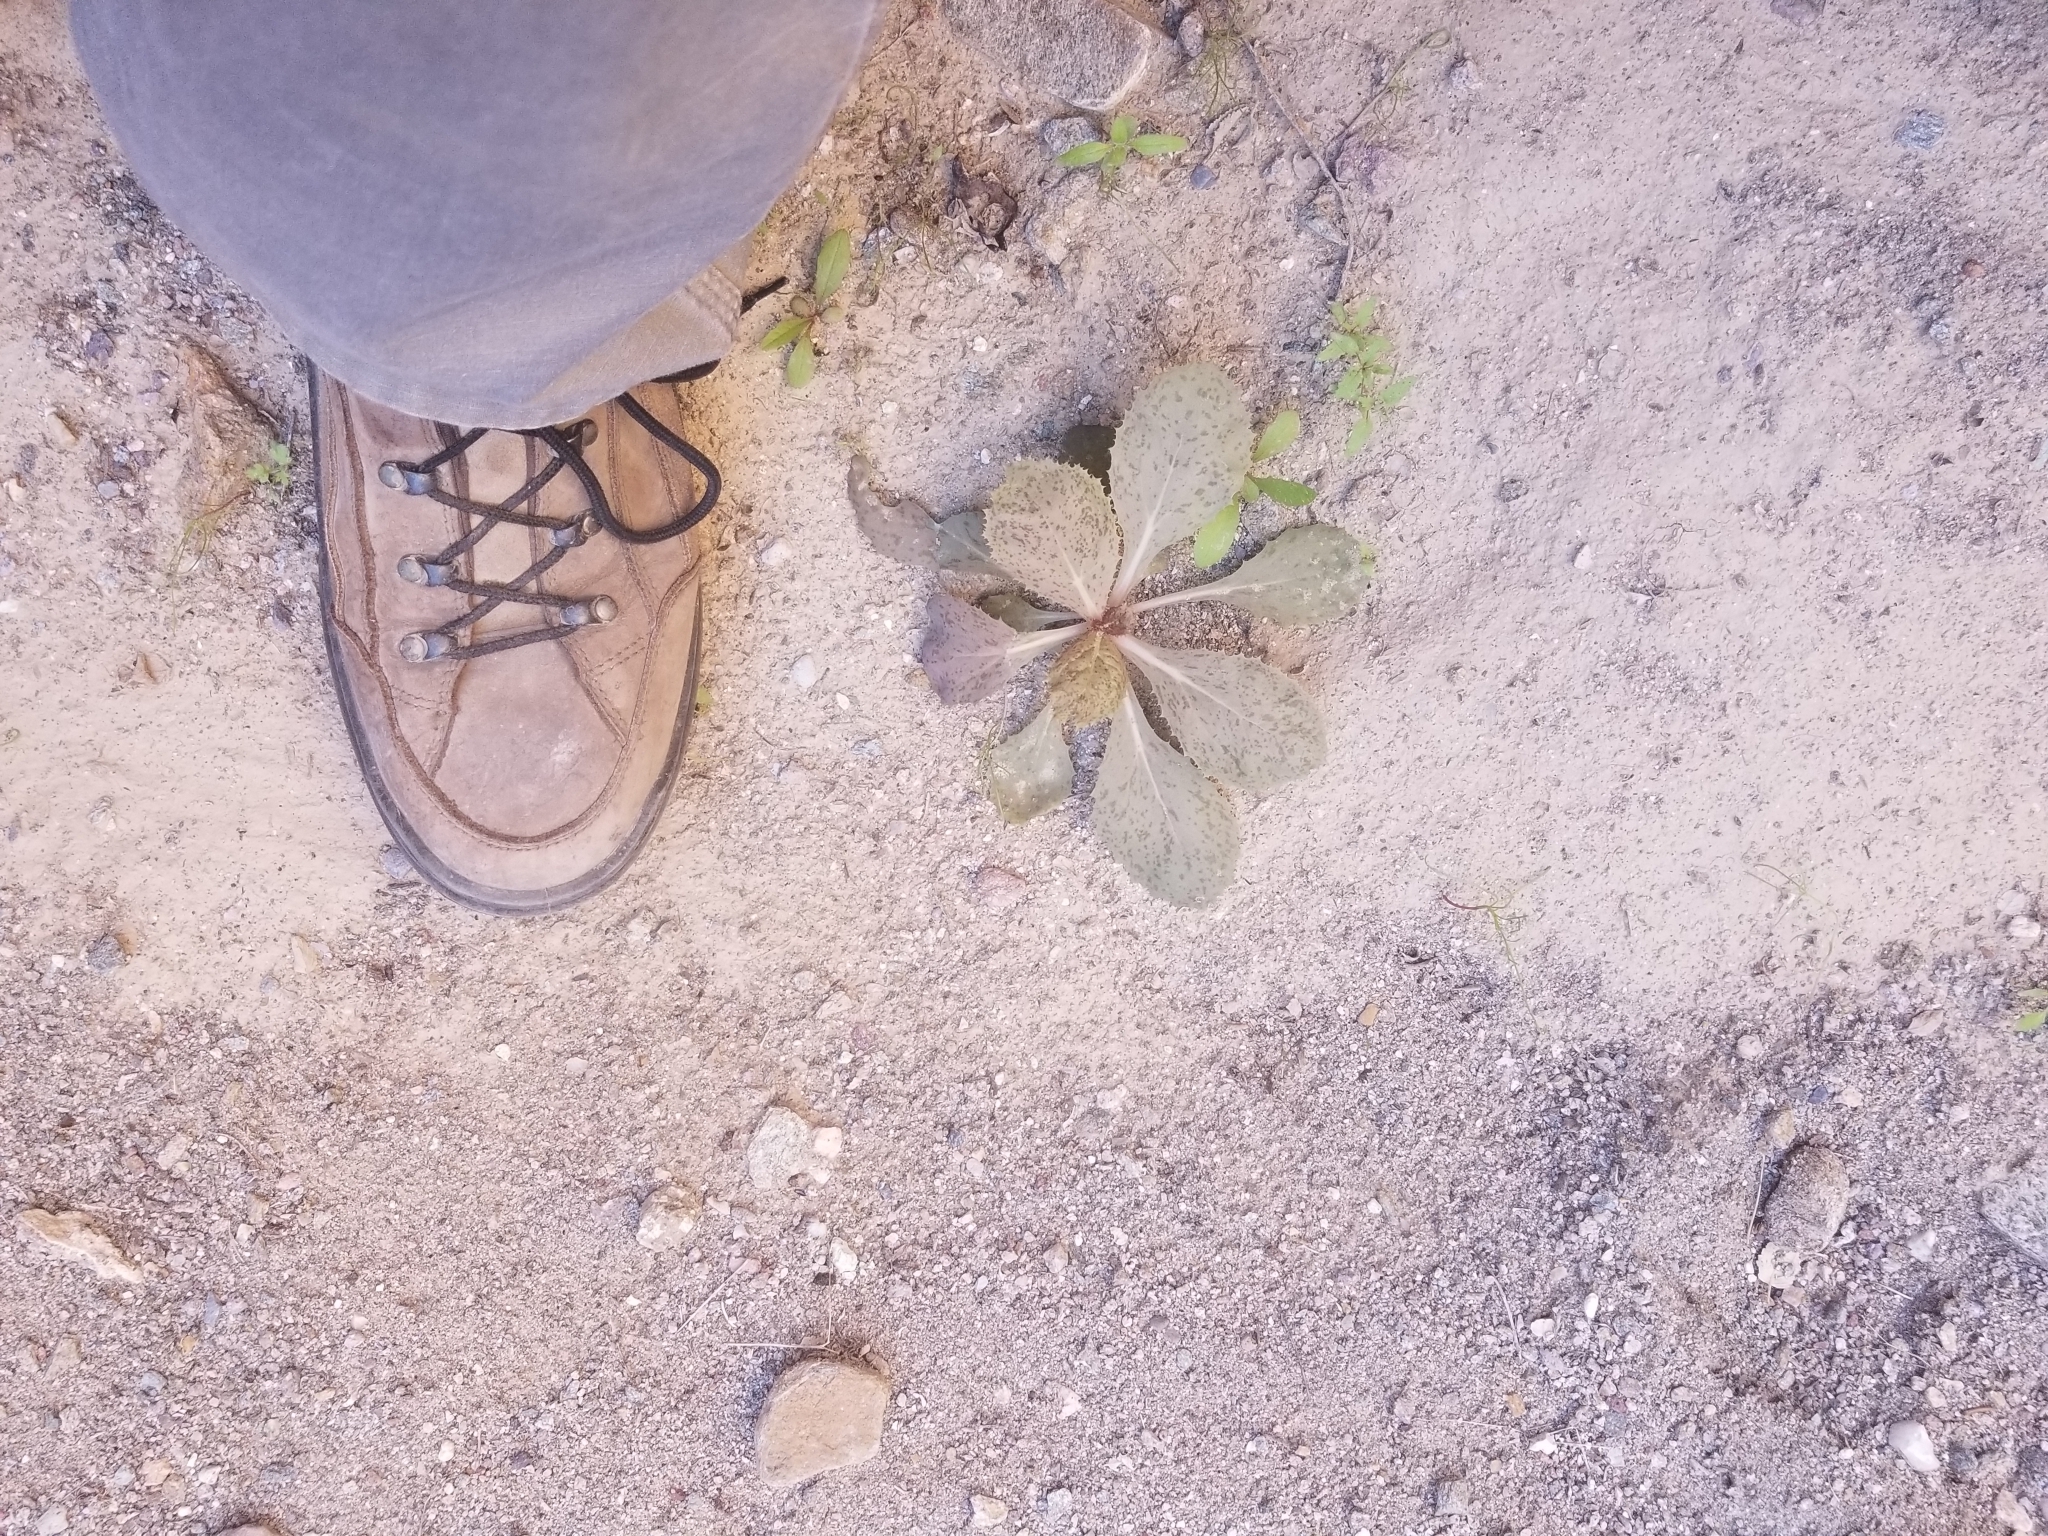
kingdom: Plantae
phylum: Tracheophyta
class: Magnoliopsida
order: Asterales
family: Asteraceae
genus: Atrichoseris
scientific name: Atrichoseris platyphylla
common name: Tobaccoweed
